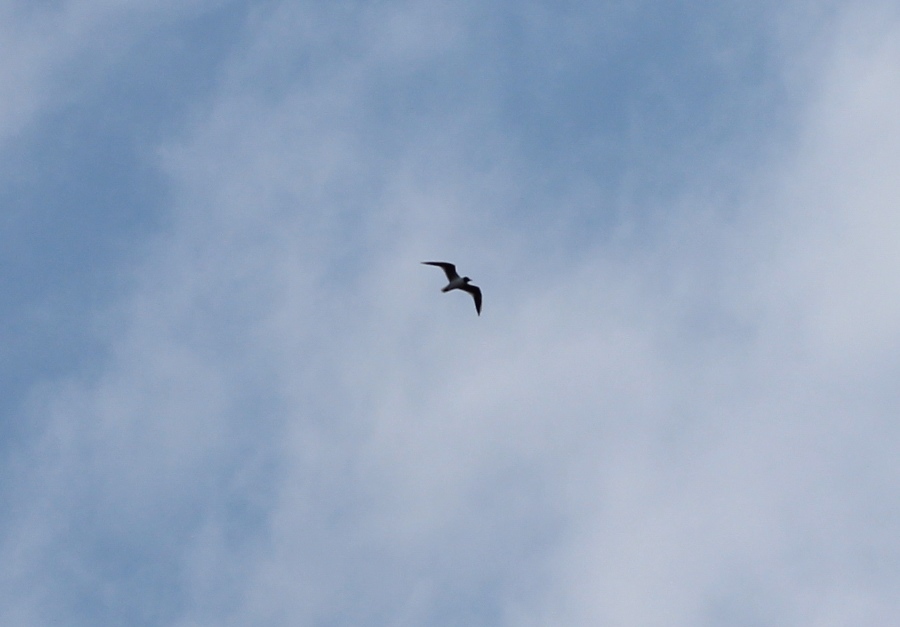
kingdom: Animalia
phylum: Chordata
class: Aves
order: Charadriiformes
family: Laridae
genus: Chroicocephalus
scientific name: Chroicocephalus ridibundus
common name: Black-headed gull
